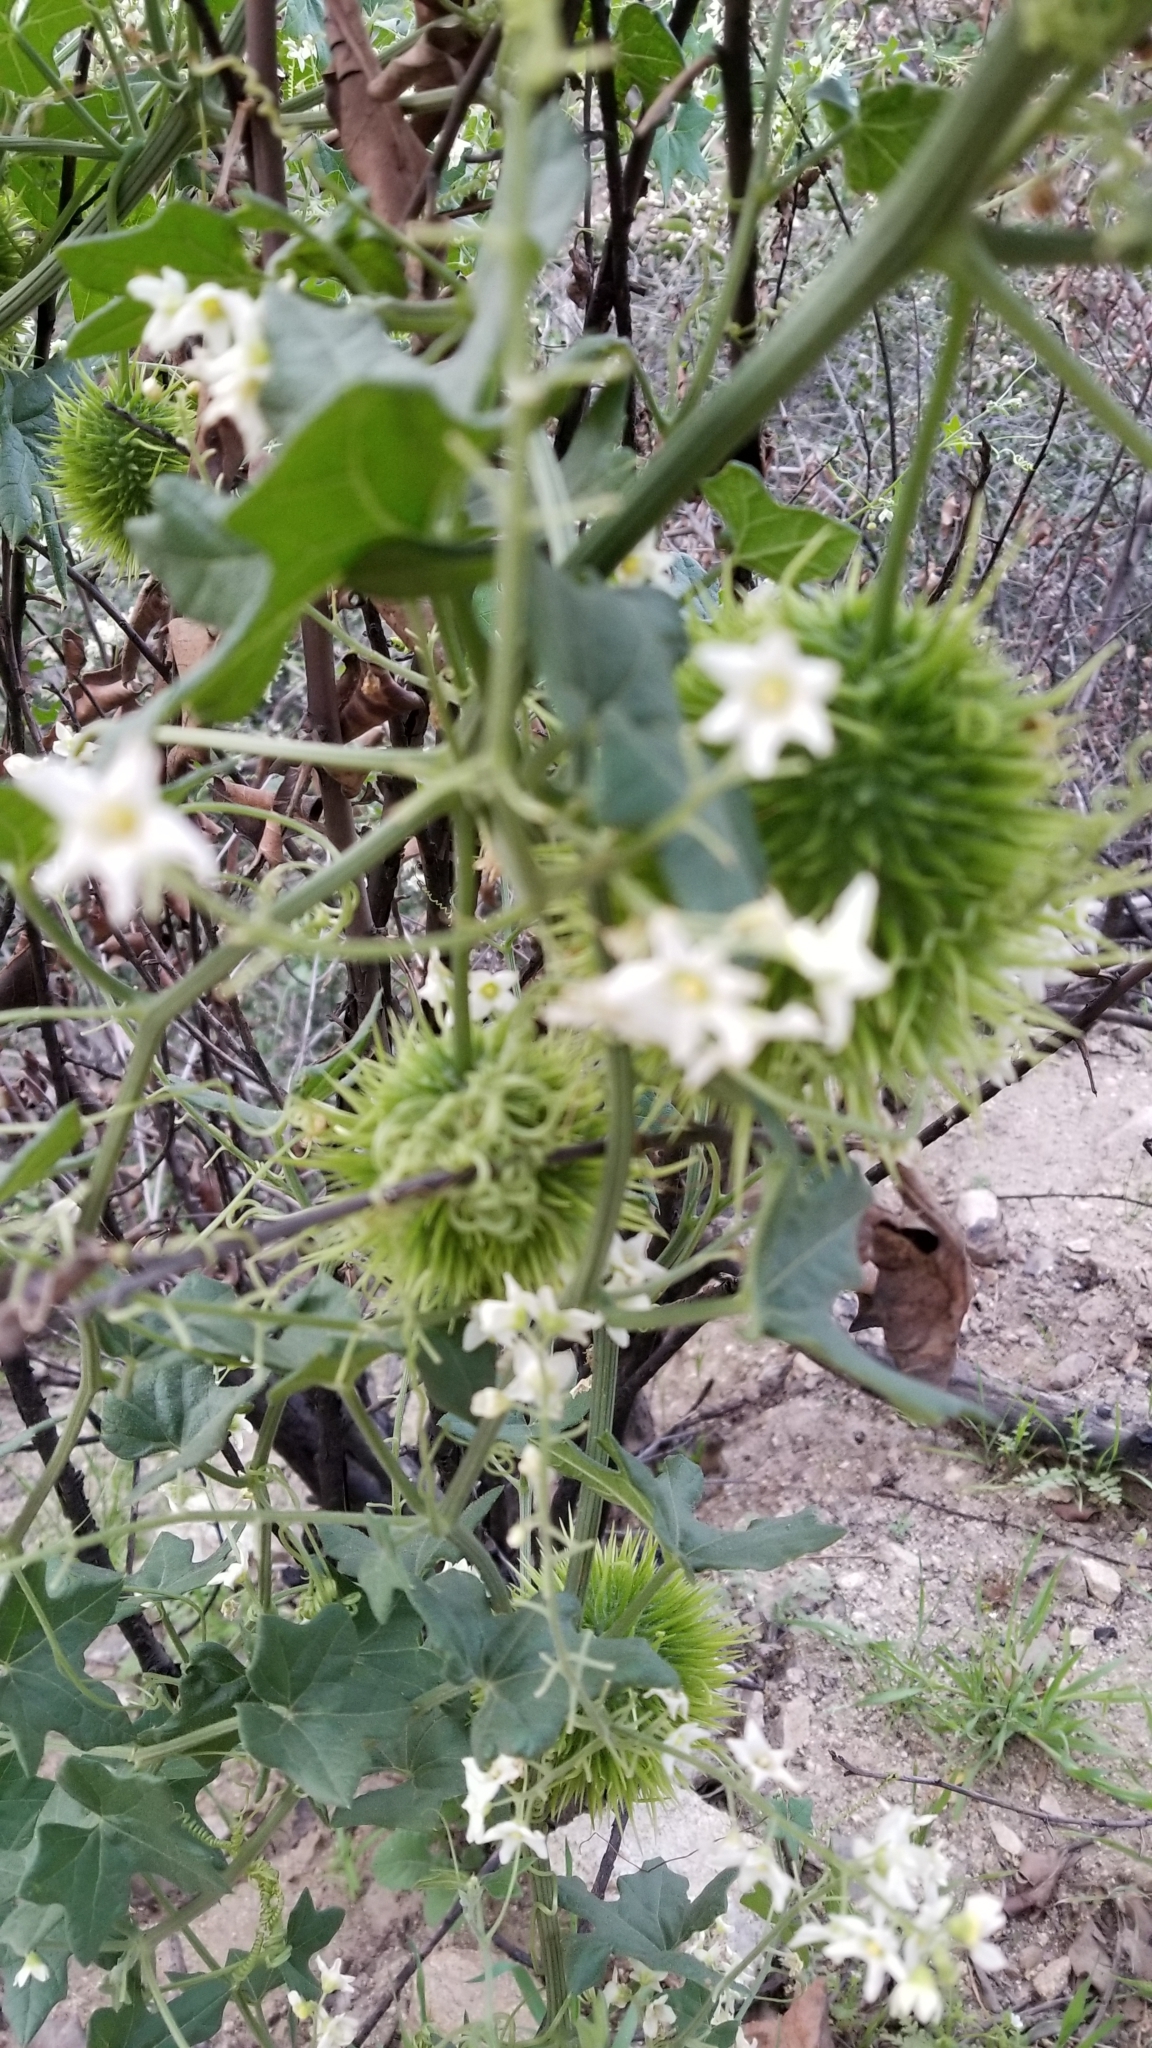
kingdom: Plantae
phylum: Tracheophyta
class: Magnoliopsida
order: Cucurbitales
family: Cucurbitaceae
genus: Marah
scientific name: Marah macrocarpa
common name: Cucamonga manroot
